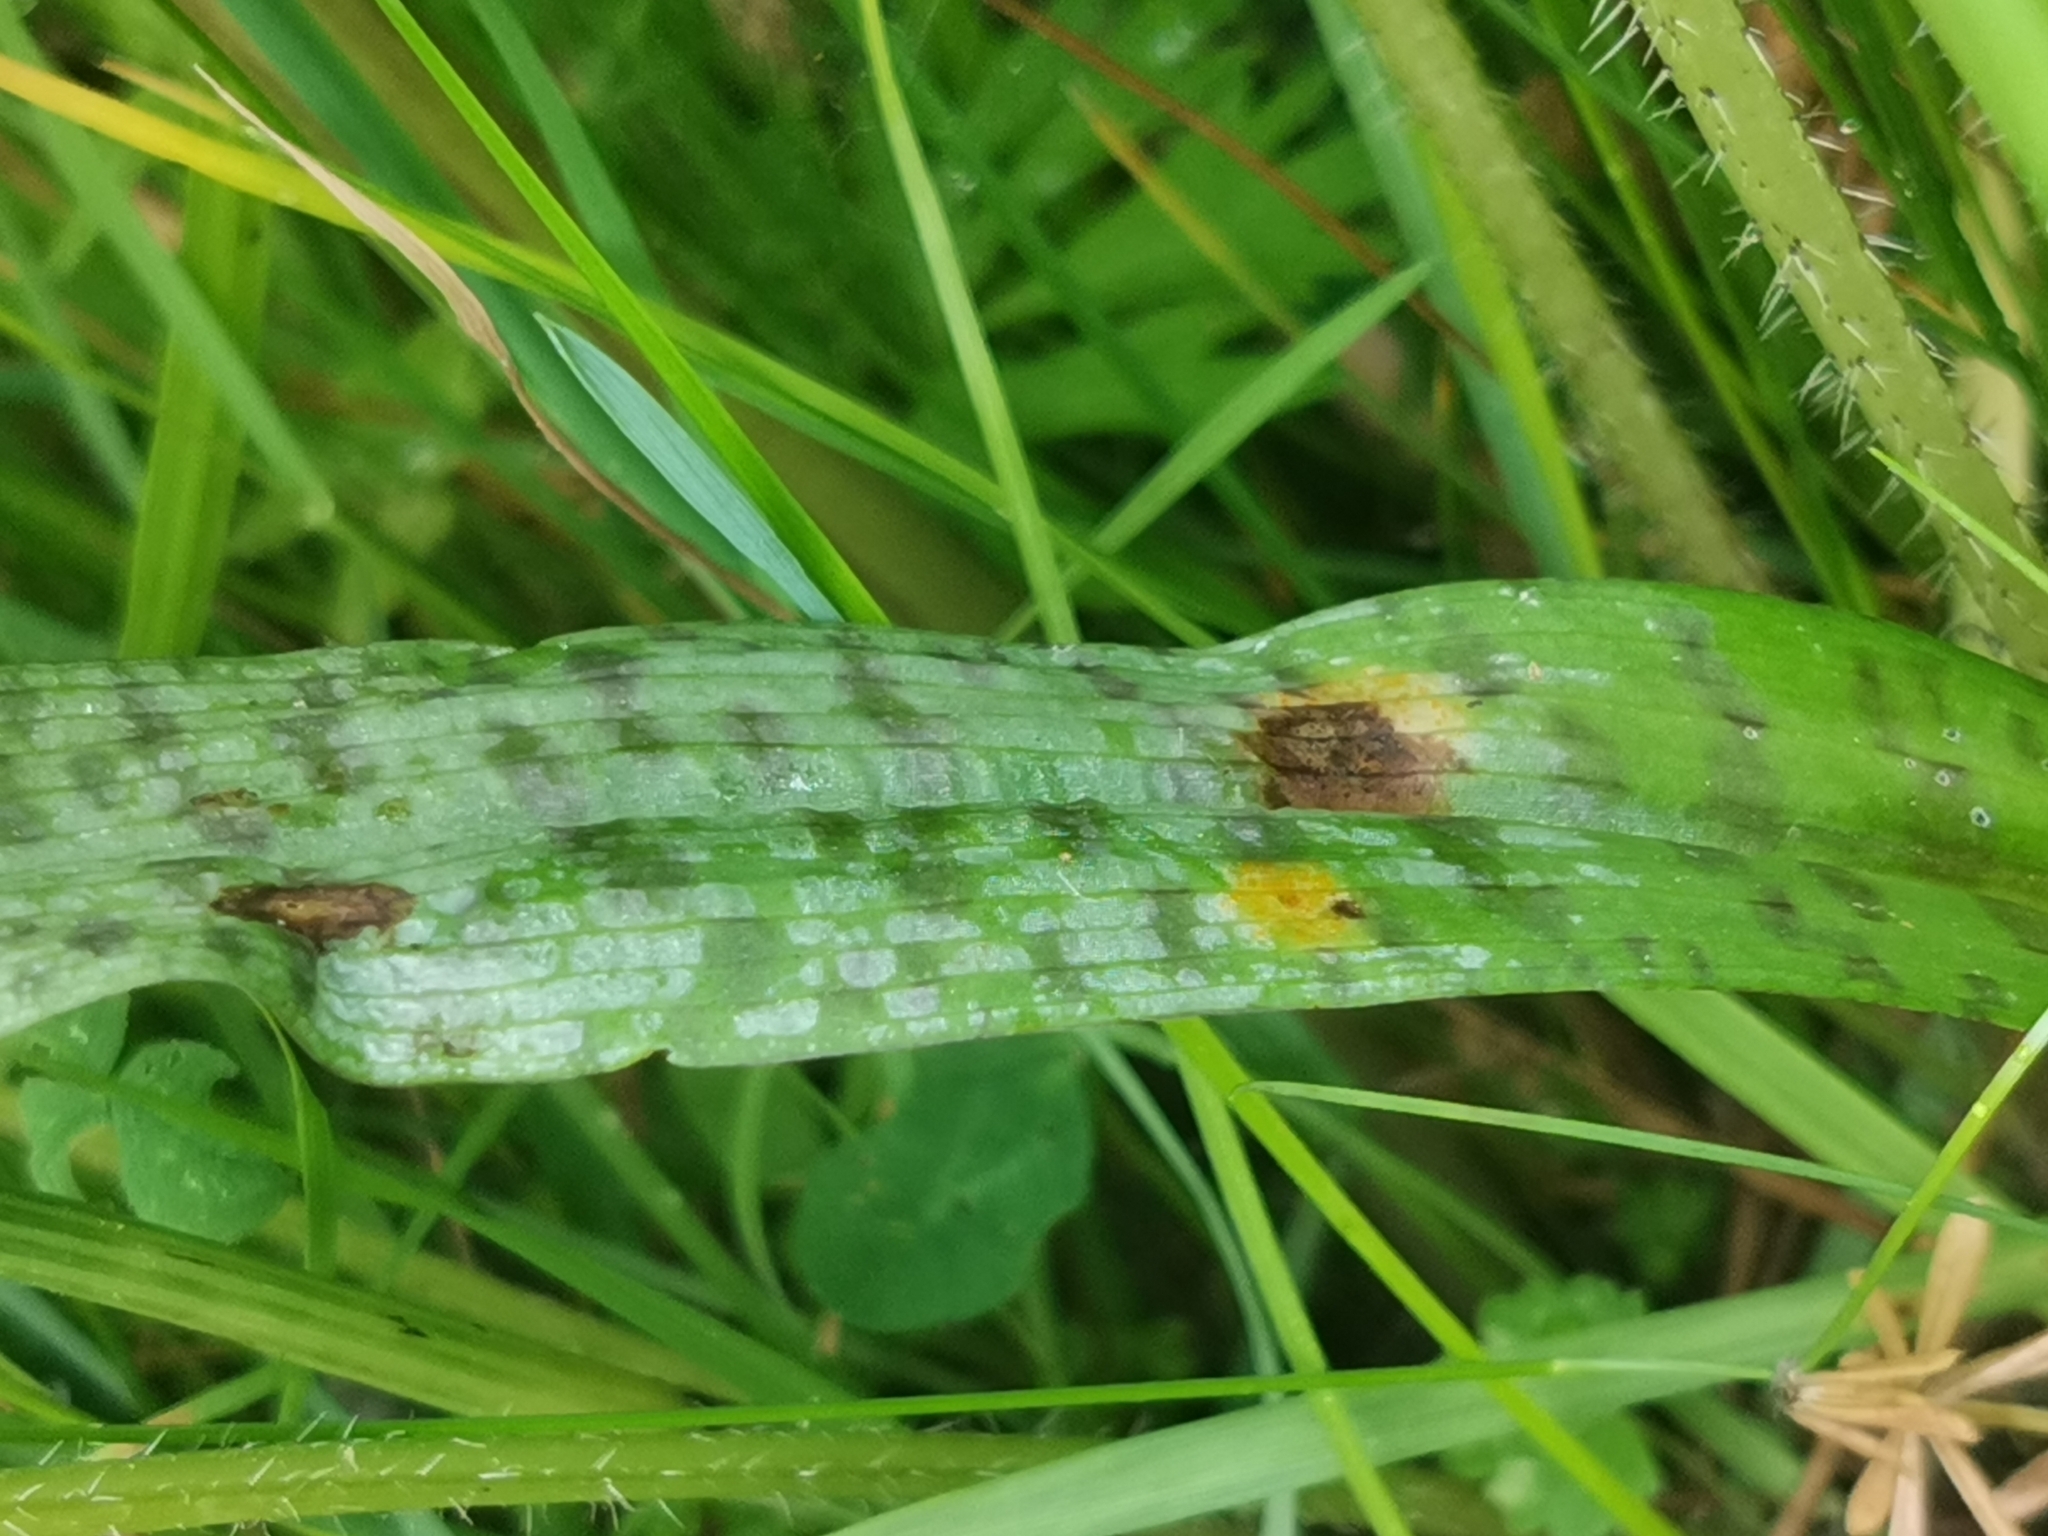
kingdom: Plantae
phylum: Tracheophyta
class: Liliopsida
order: Asparagales
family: Orchidaceae
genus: Dactylorhiza
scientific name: Dactylorhiza majalis
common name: Marsh orchid
